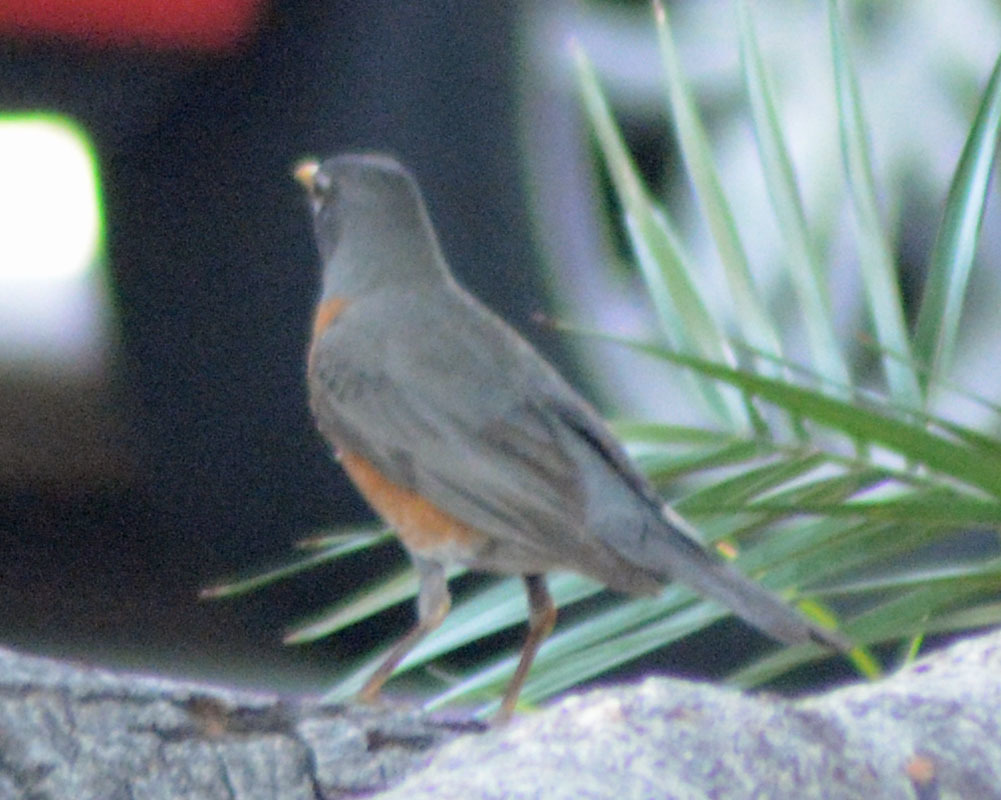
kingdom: Animalia
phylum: Chordata
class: Aves
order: Passeriformes
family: Turdidae
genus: Turdus
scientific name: Turdus migratorius
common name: American robin
